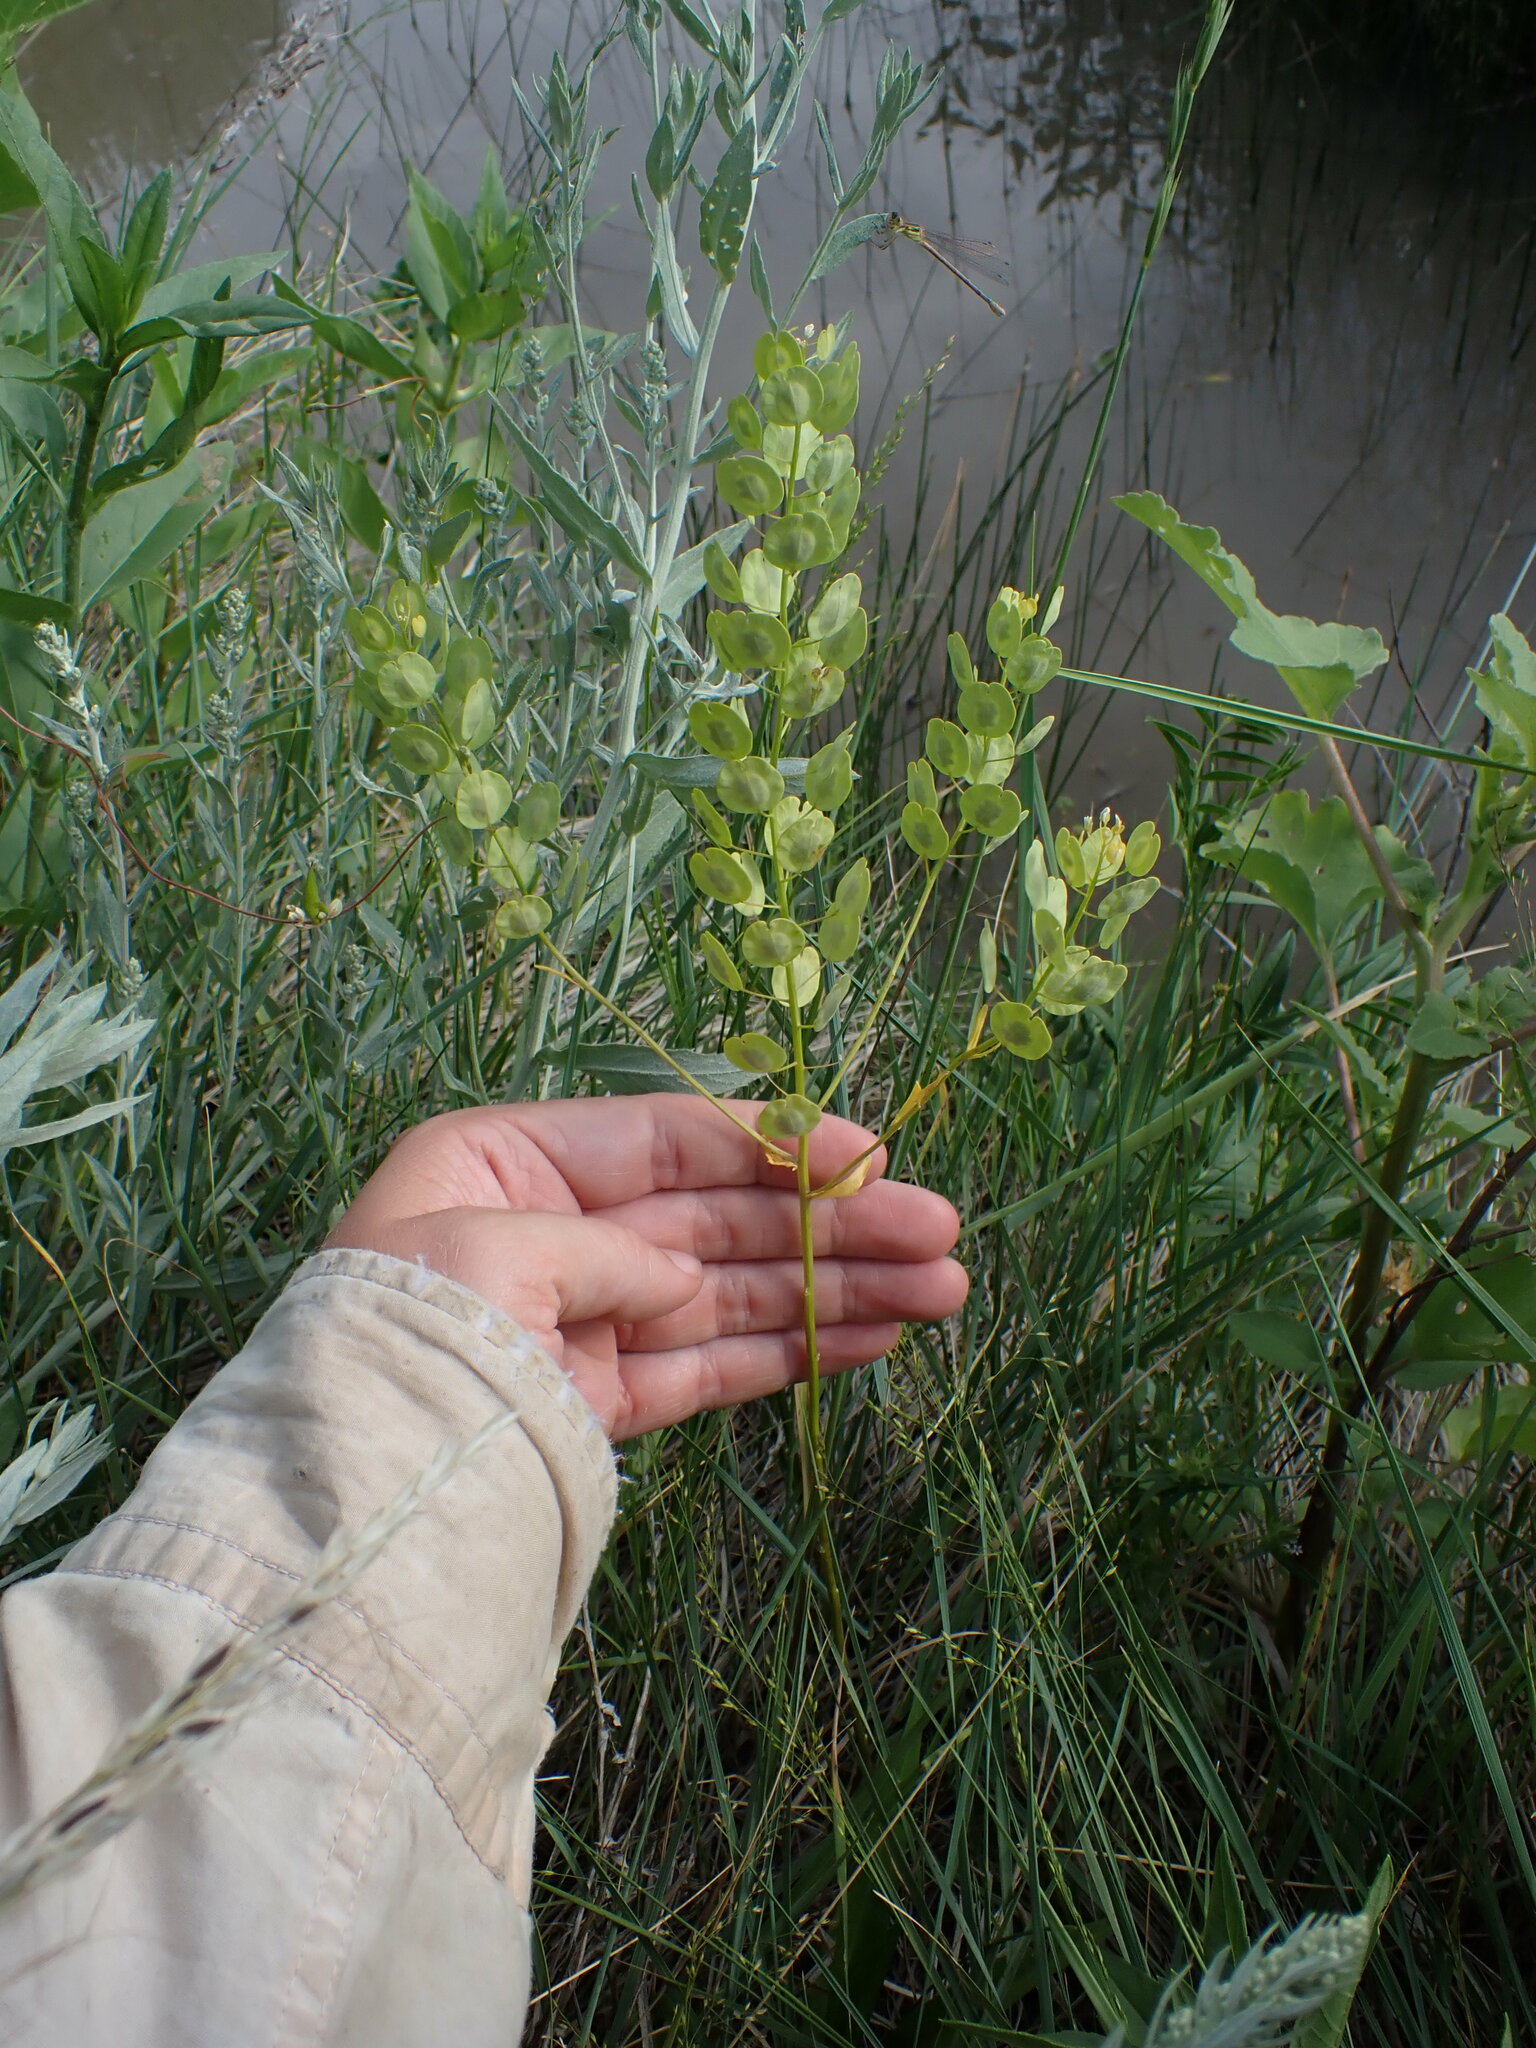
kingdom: Plantae
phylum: Tracheophyta
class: Magnoliopsida
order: Brassicales
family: Brassicaceae
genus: Thlaspi
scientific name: Thlaspi arvense
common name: Field pennycress
